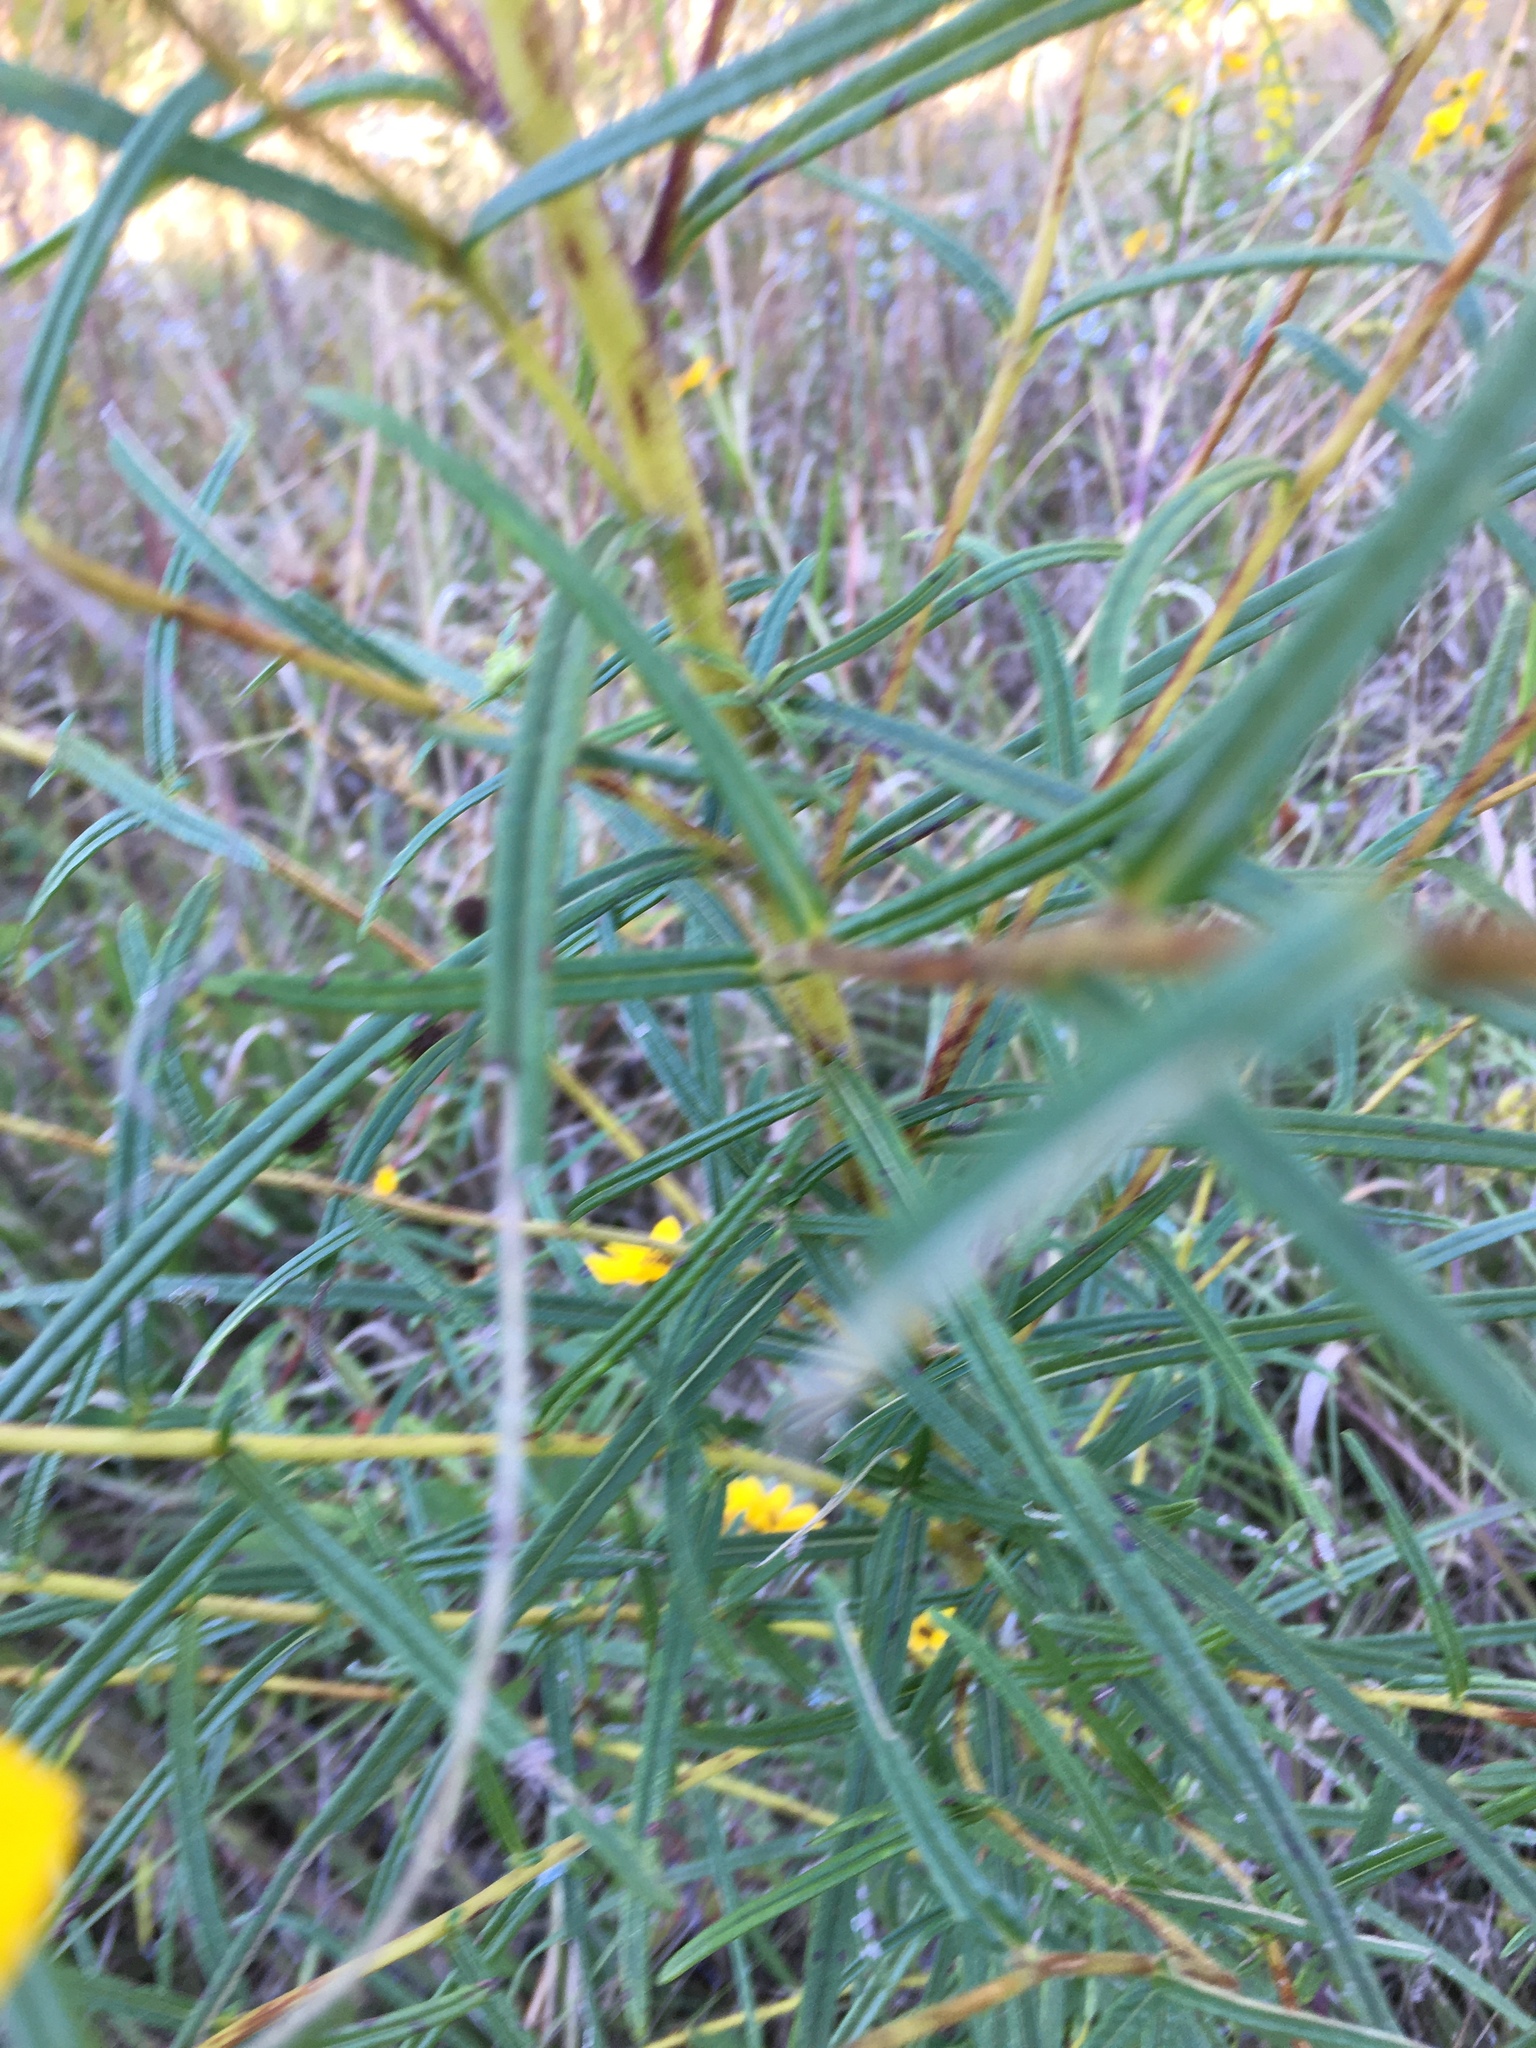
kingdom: Plantae
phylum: Tracheophyta
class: Magnoliopsida
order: Asterales
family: Asteraceae
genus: Helianthus
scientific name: Helianthus angustifolius
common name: Swamp sunflower
